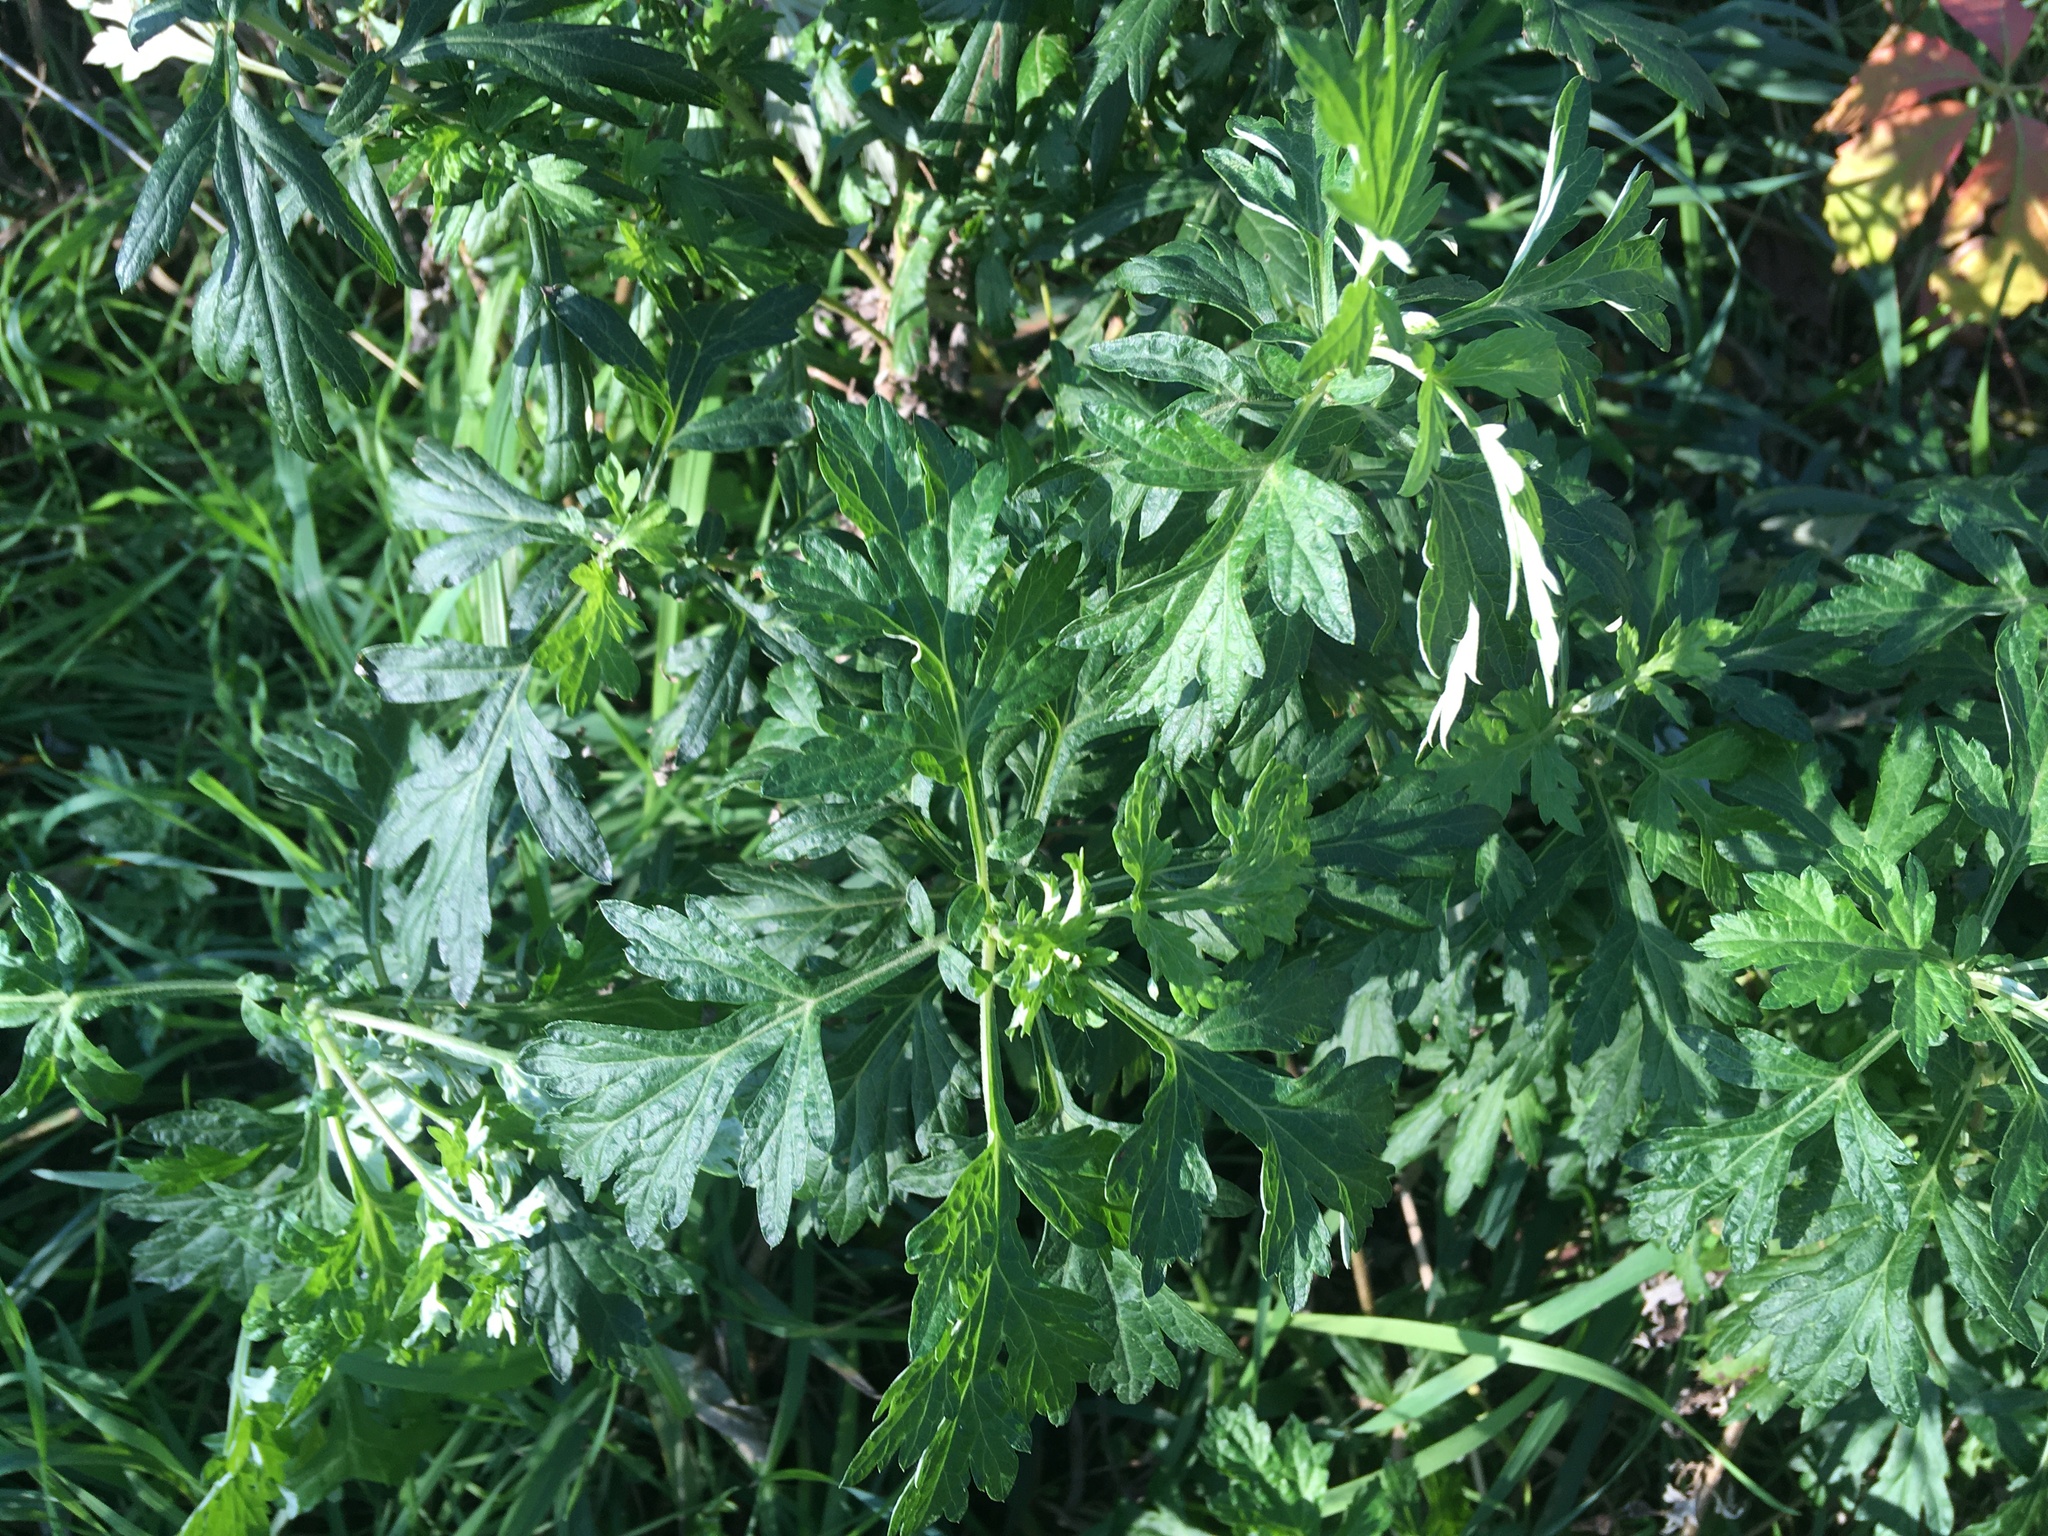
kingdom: Plantae
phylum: Tracheophyta
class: Magnoliopsida
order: Asterales
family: Asteraceae
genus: Artemisia
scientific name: Artemisia vulgaris
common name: Mugwort
